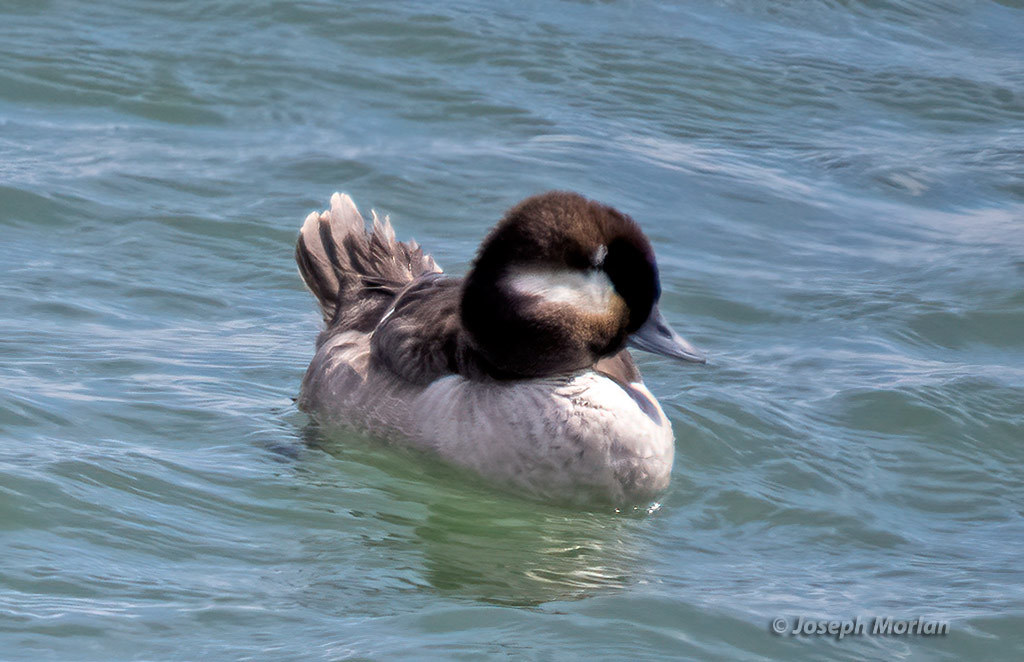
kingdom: Animalia
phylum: Chordata
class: Aves
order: Anseriformes
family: Anatidae
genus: Bucephala
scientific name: Bucephala albeola
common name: Bufflehead
